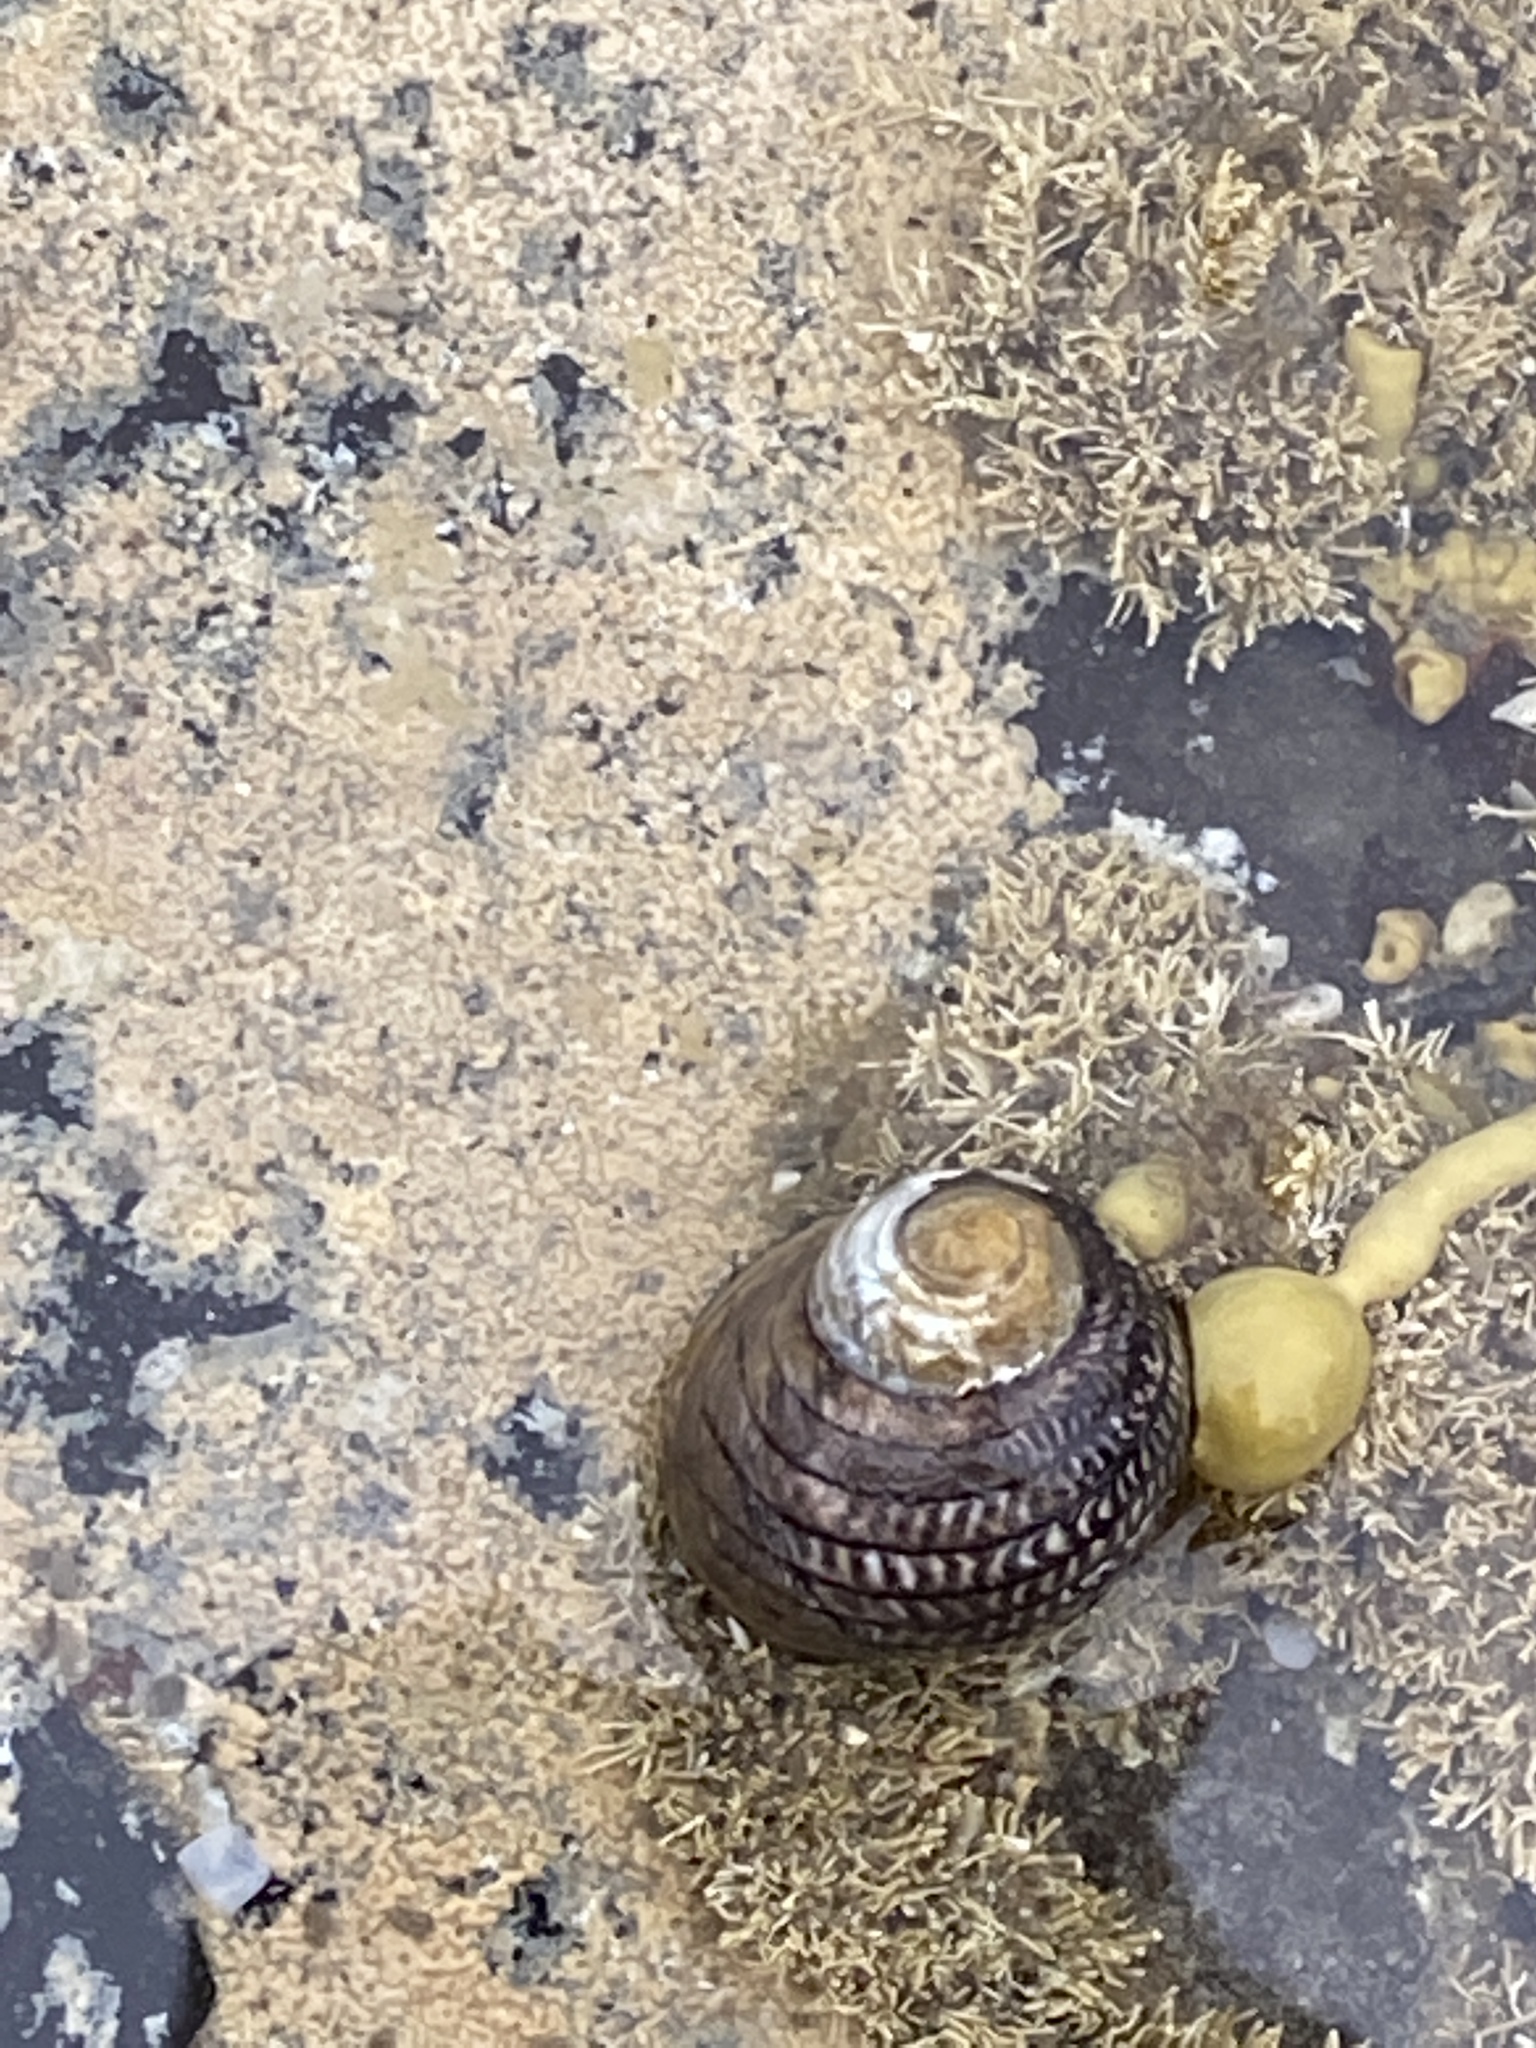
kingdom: Animalia
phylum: Mollusca
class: Gastropoda
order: Trochida
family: Trochidae
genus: Diloma
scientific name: Diloma aethiops
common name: Scorched monodont
